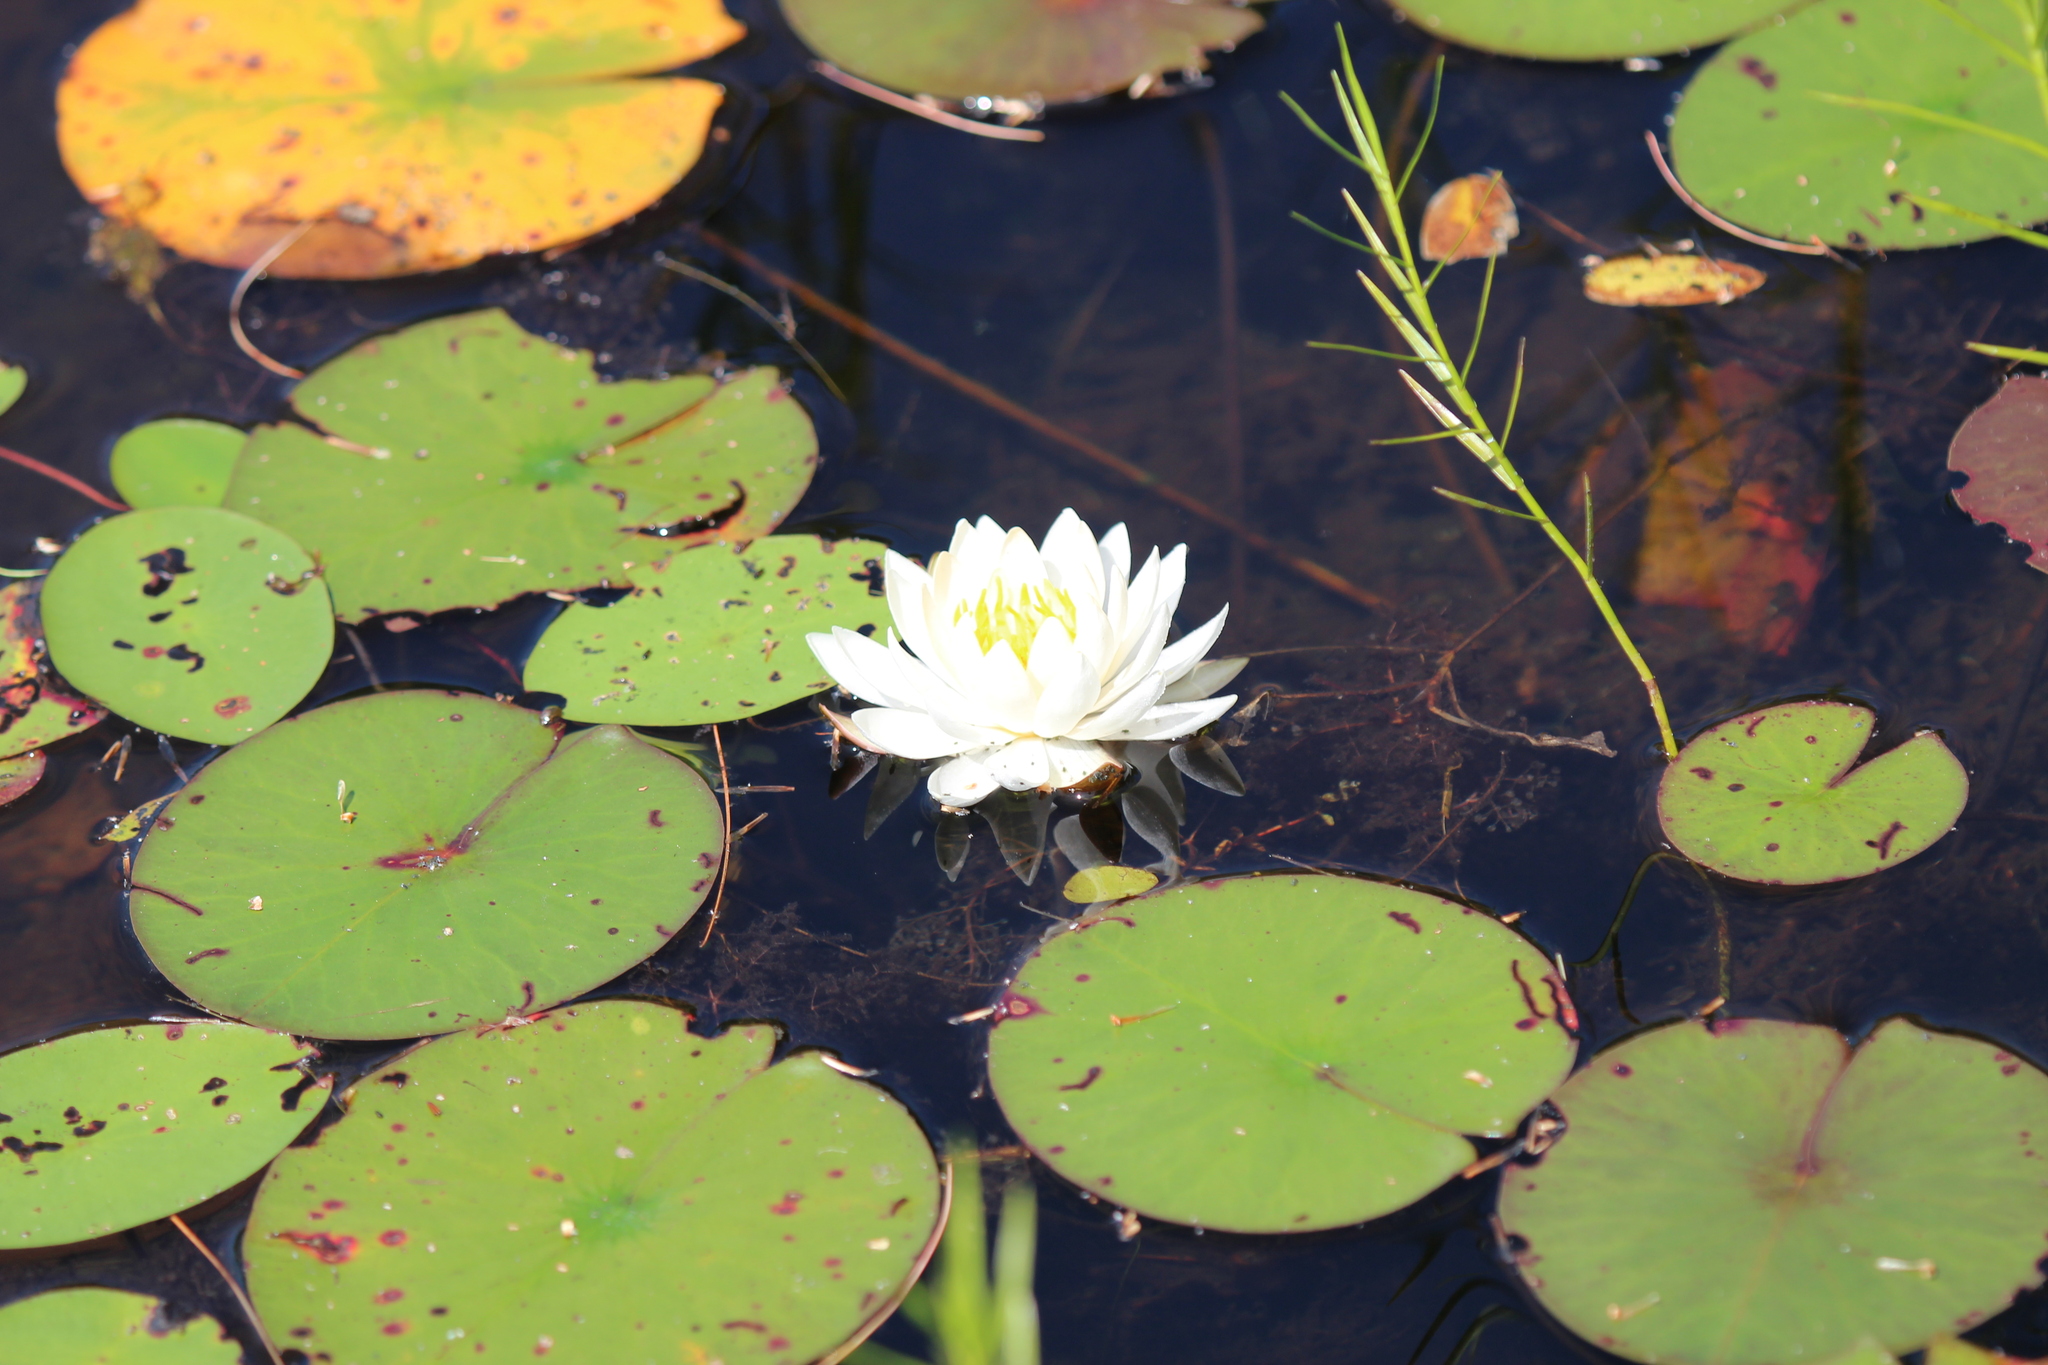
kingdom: Plantae
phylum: Tracheophyta
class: Magnoliopsida
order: Nymphaeales
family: Nymphaeaceae
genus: Nymphaea
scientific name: Nymphaea odorata
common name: Fragrant water-lily
